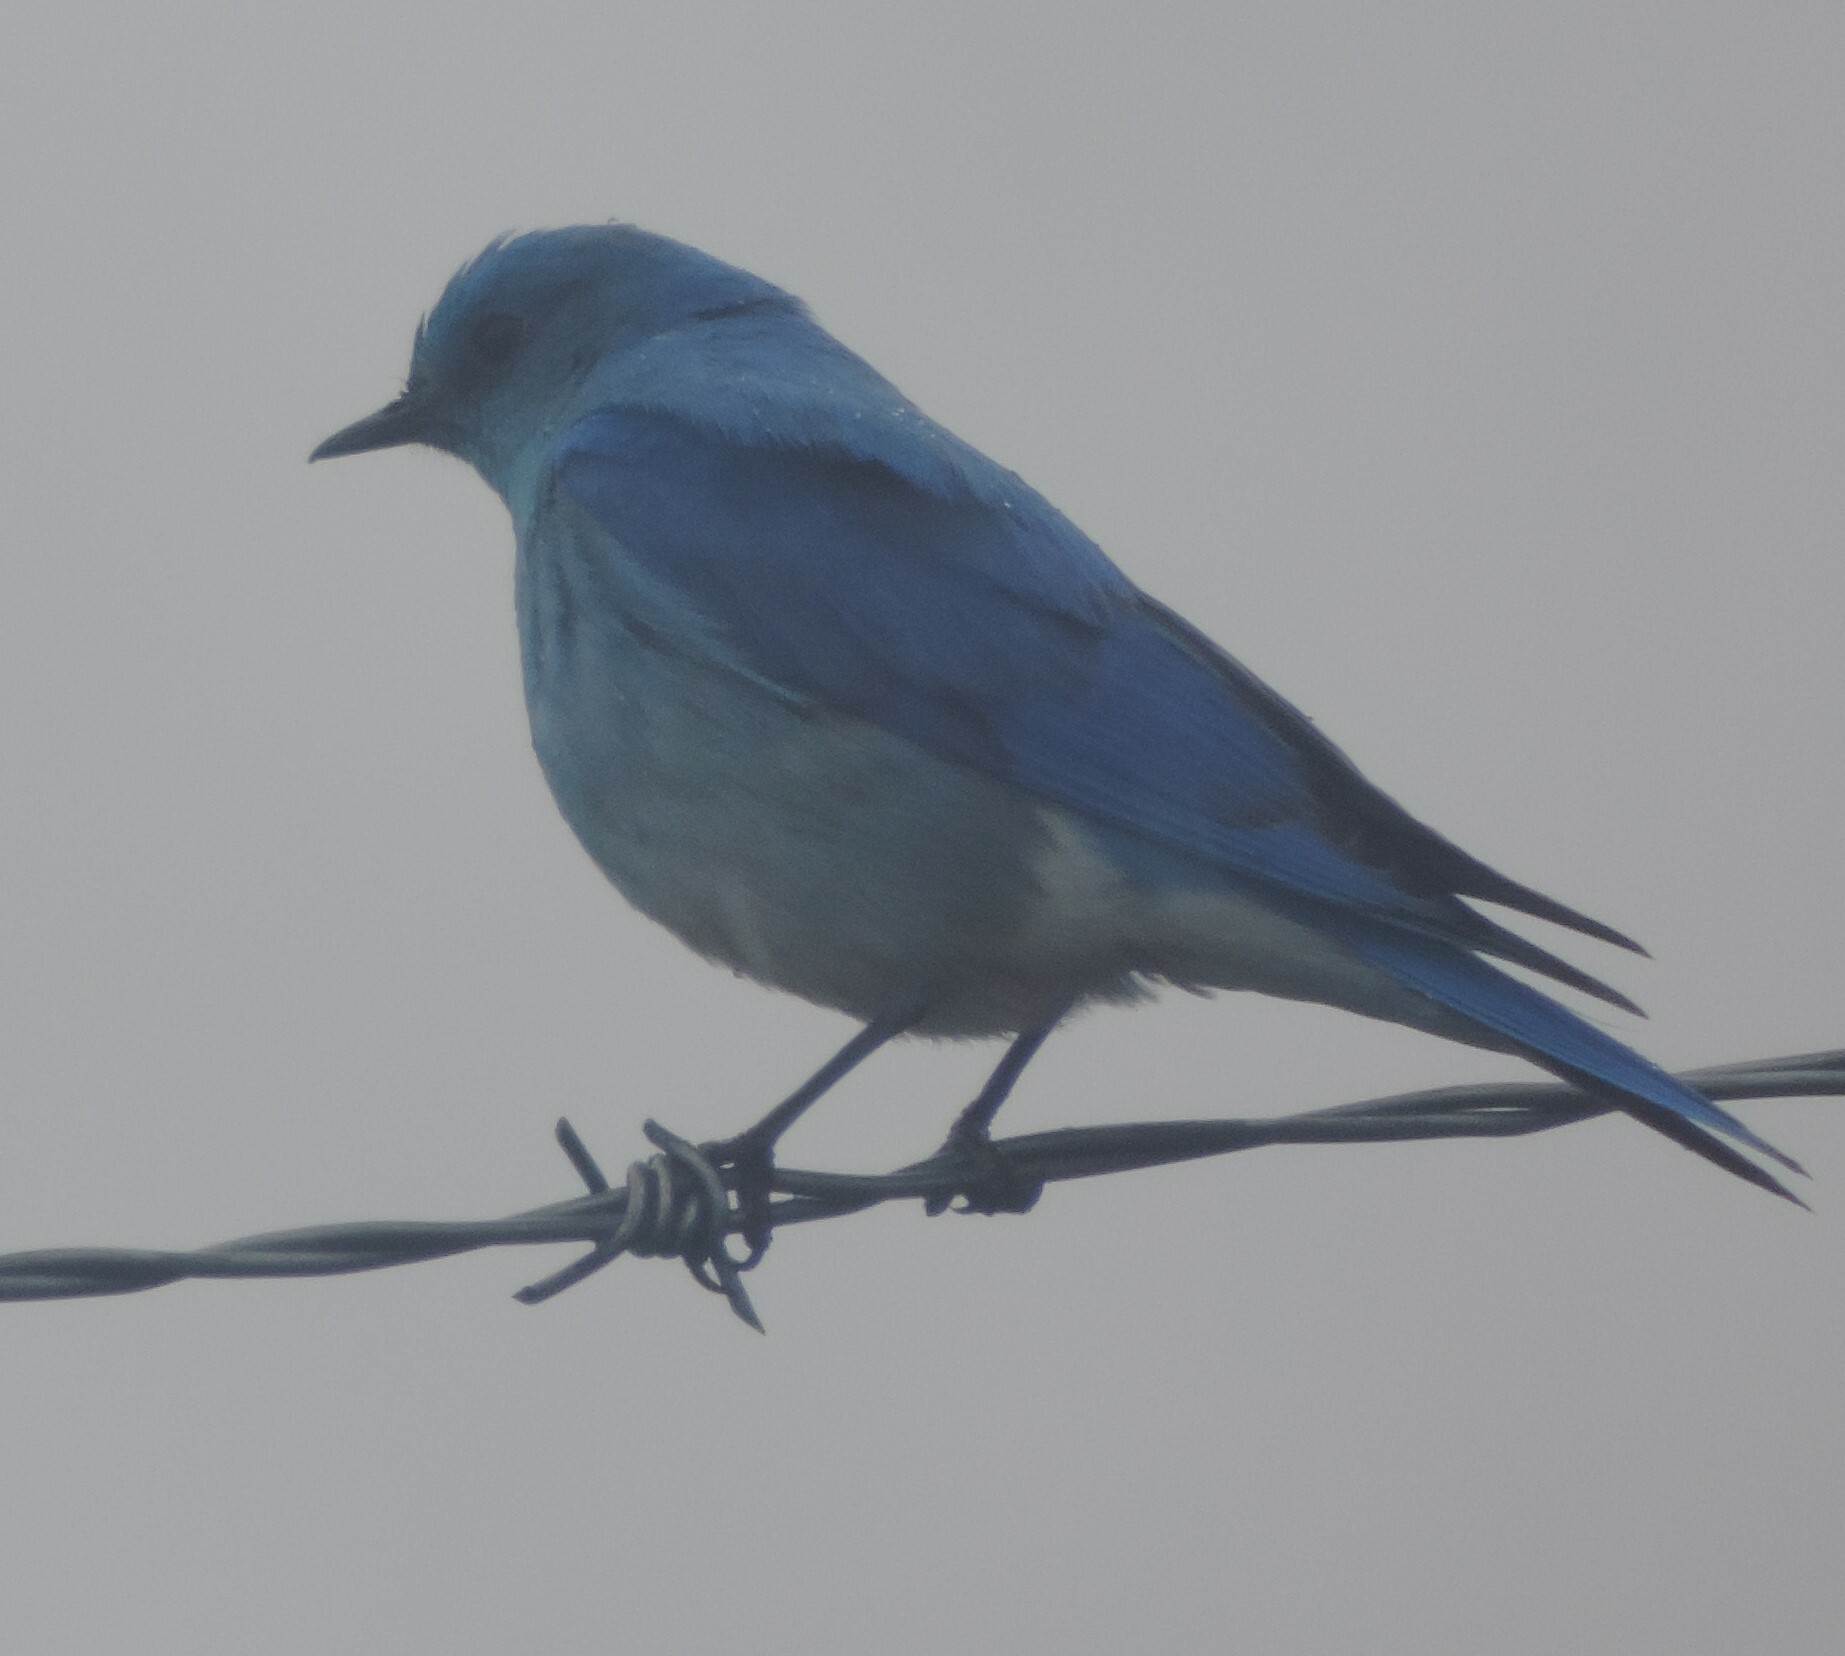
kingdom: Animalia
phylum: Chordata
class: Aves
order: Passeriformes
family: Turdidae
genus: Sialia
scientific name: Sialia currucoides
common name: Mountain bluebird
